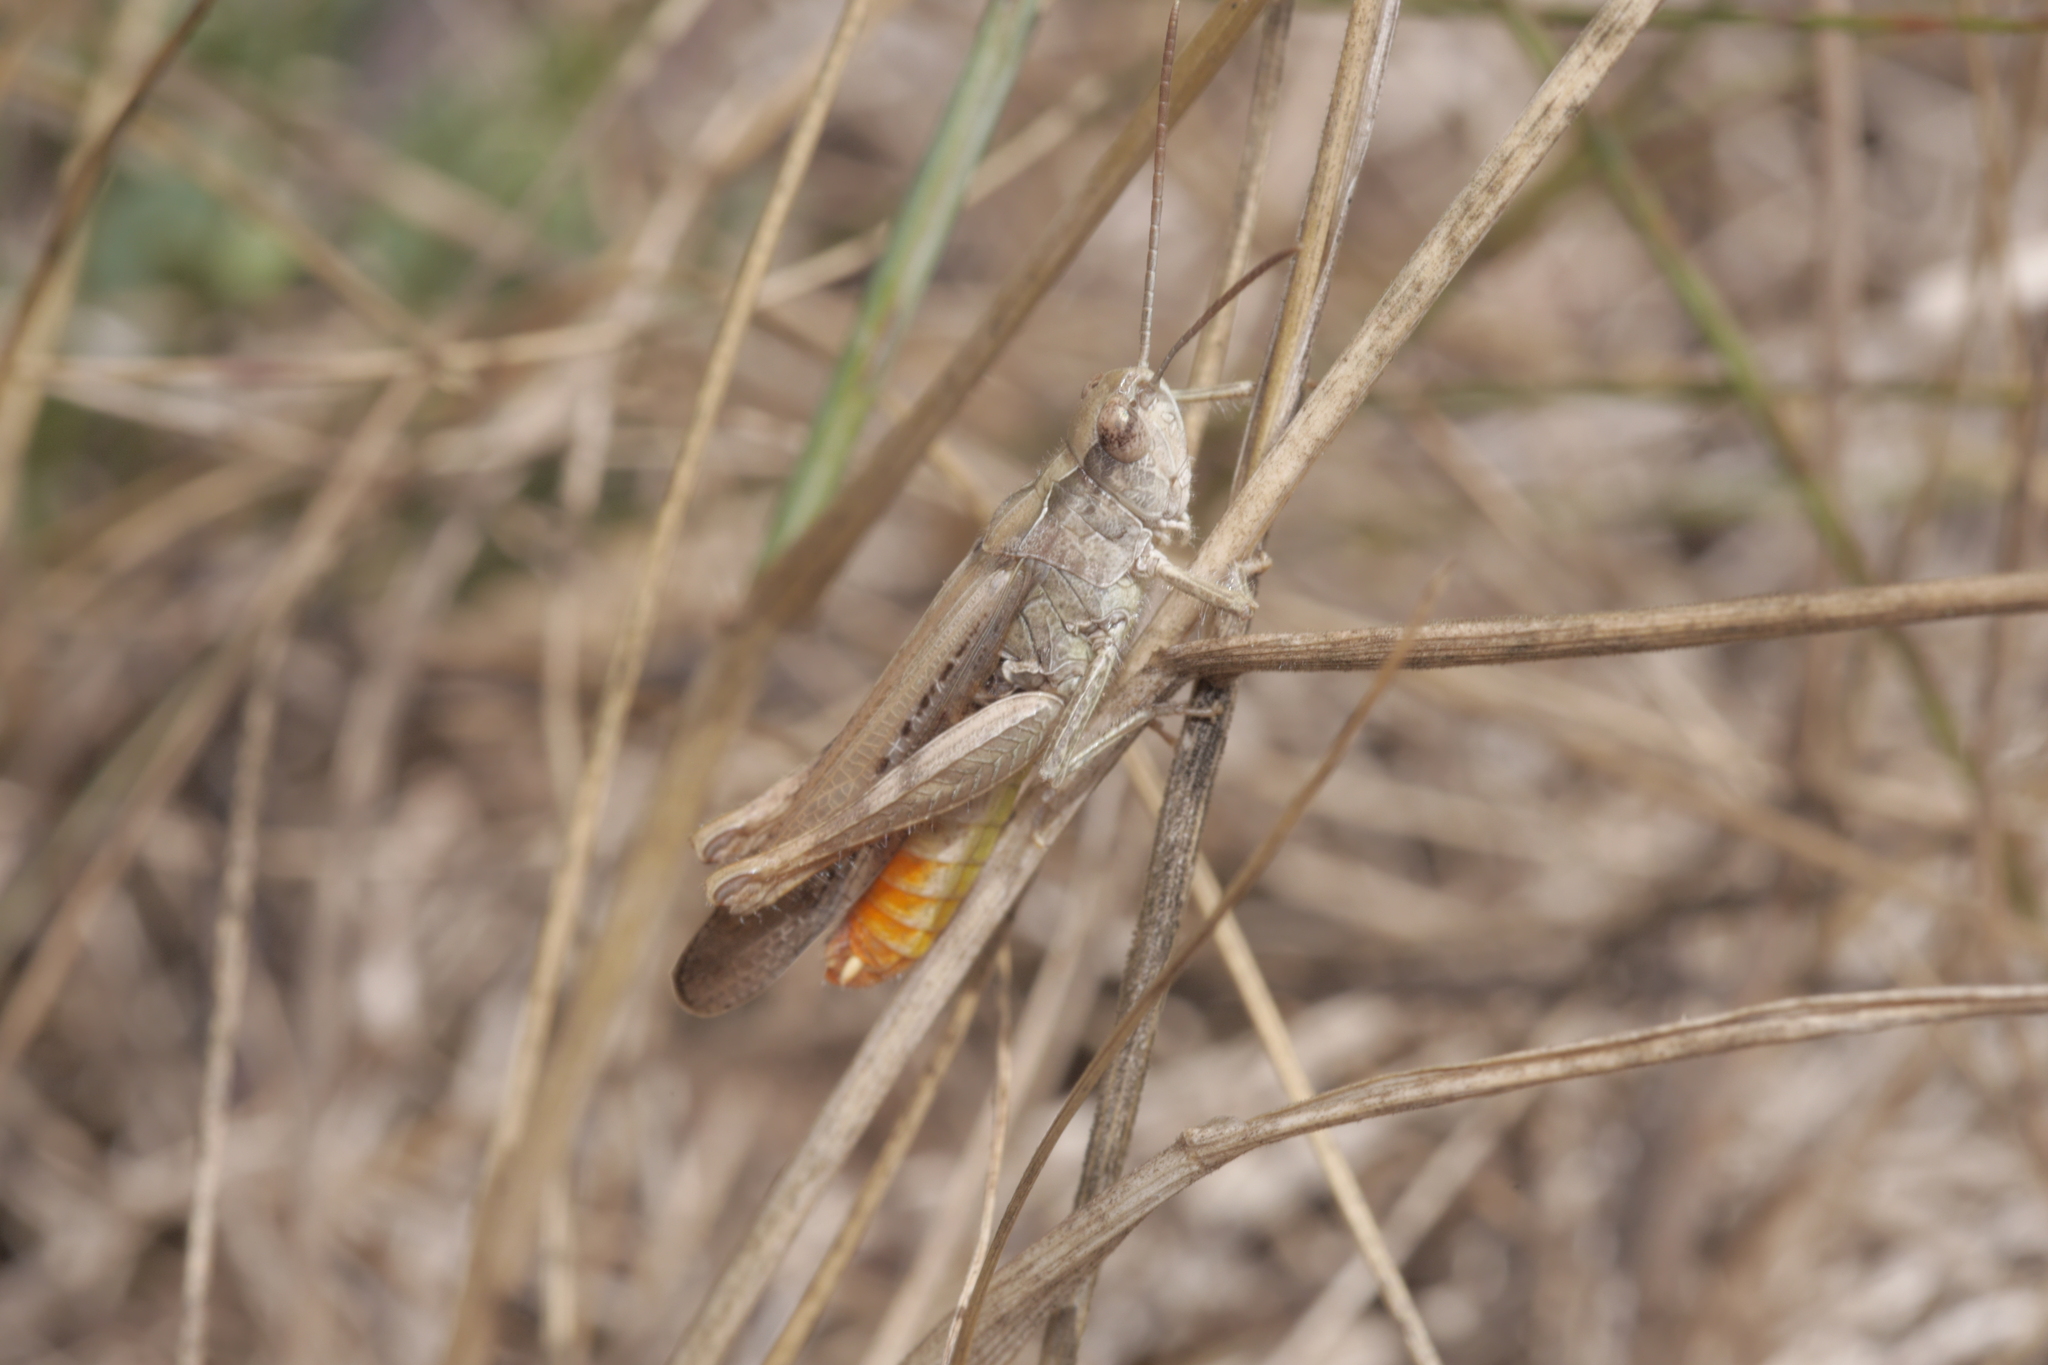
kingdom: Animalia
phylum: Arthropoda
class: Insecta
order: Orthoptera
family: Acrididae
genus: Chorthippus
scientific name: Chorthippus brunneus
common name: Field grasshopper
